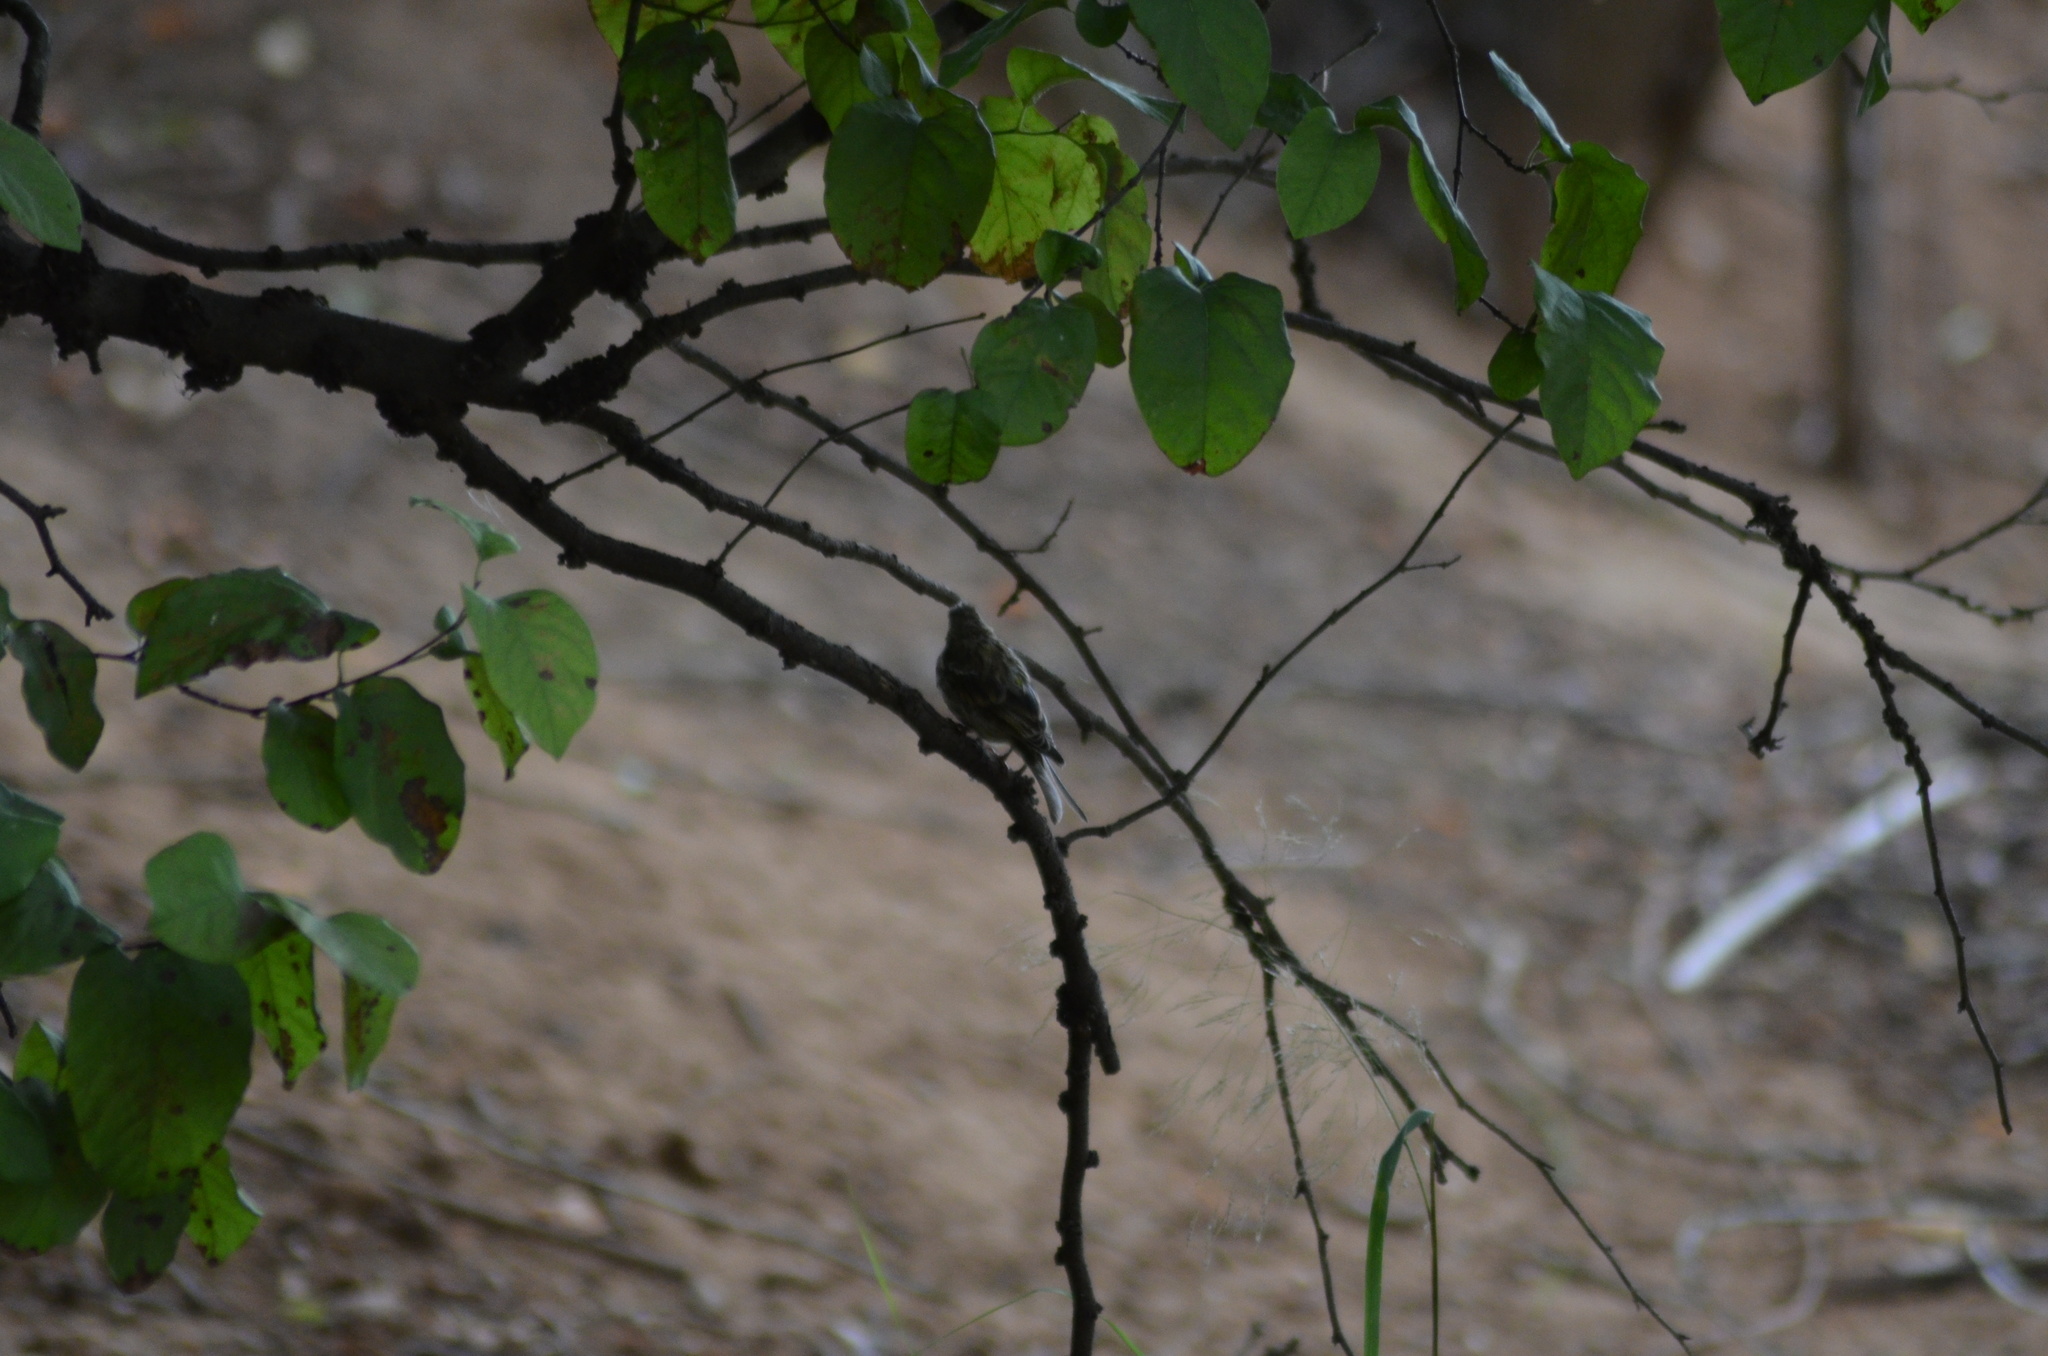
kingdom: Animalia
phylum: Chordata
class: Aves
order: Passeriformes
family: Fringillidae
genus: Serinus
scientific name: Serinus serinus
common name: European serin
